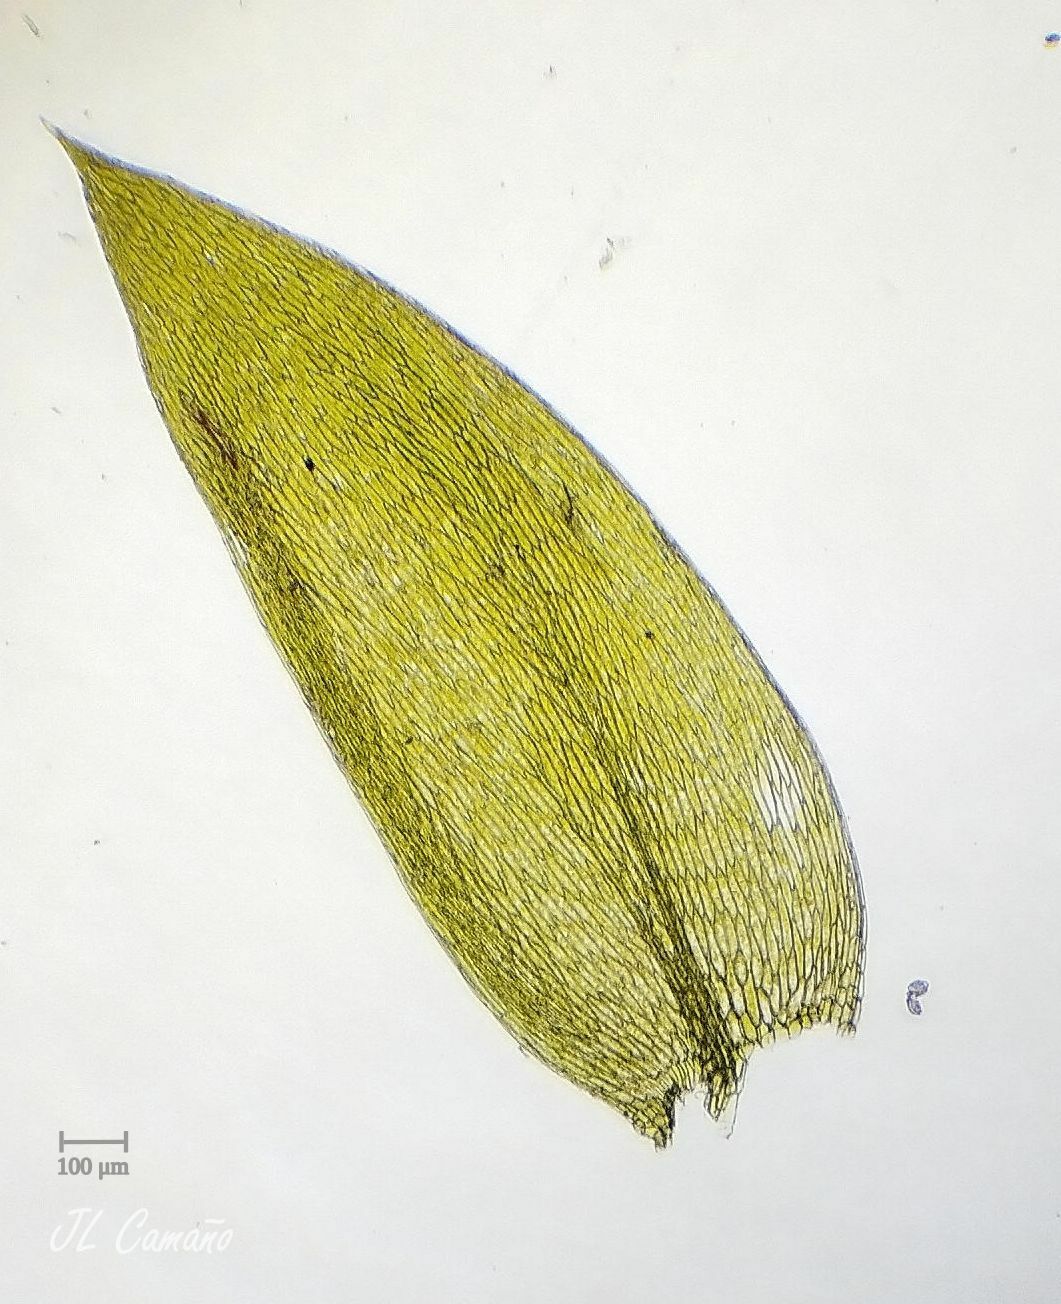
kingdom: Plantae
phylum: Bryophyta
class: Bryopsida
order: Hypnales
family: Plagiotheciaceae
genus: Plagiothecium
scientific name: Plagiothecium nemorale
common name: Woodsy silk-moss
